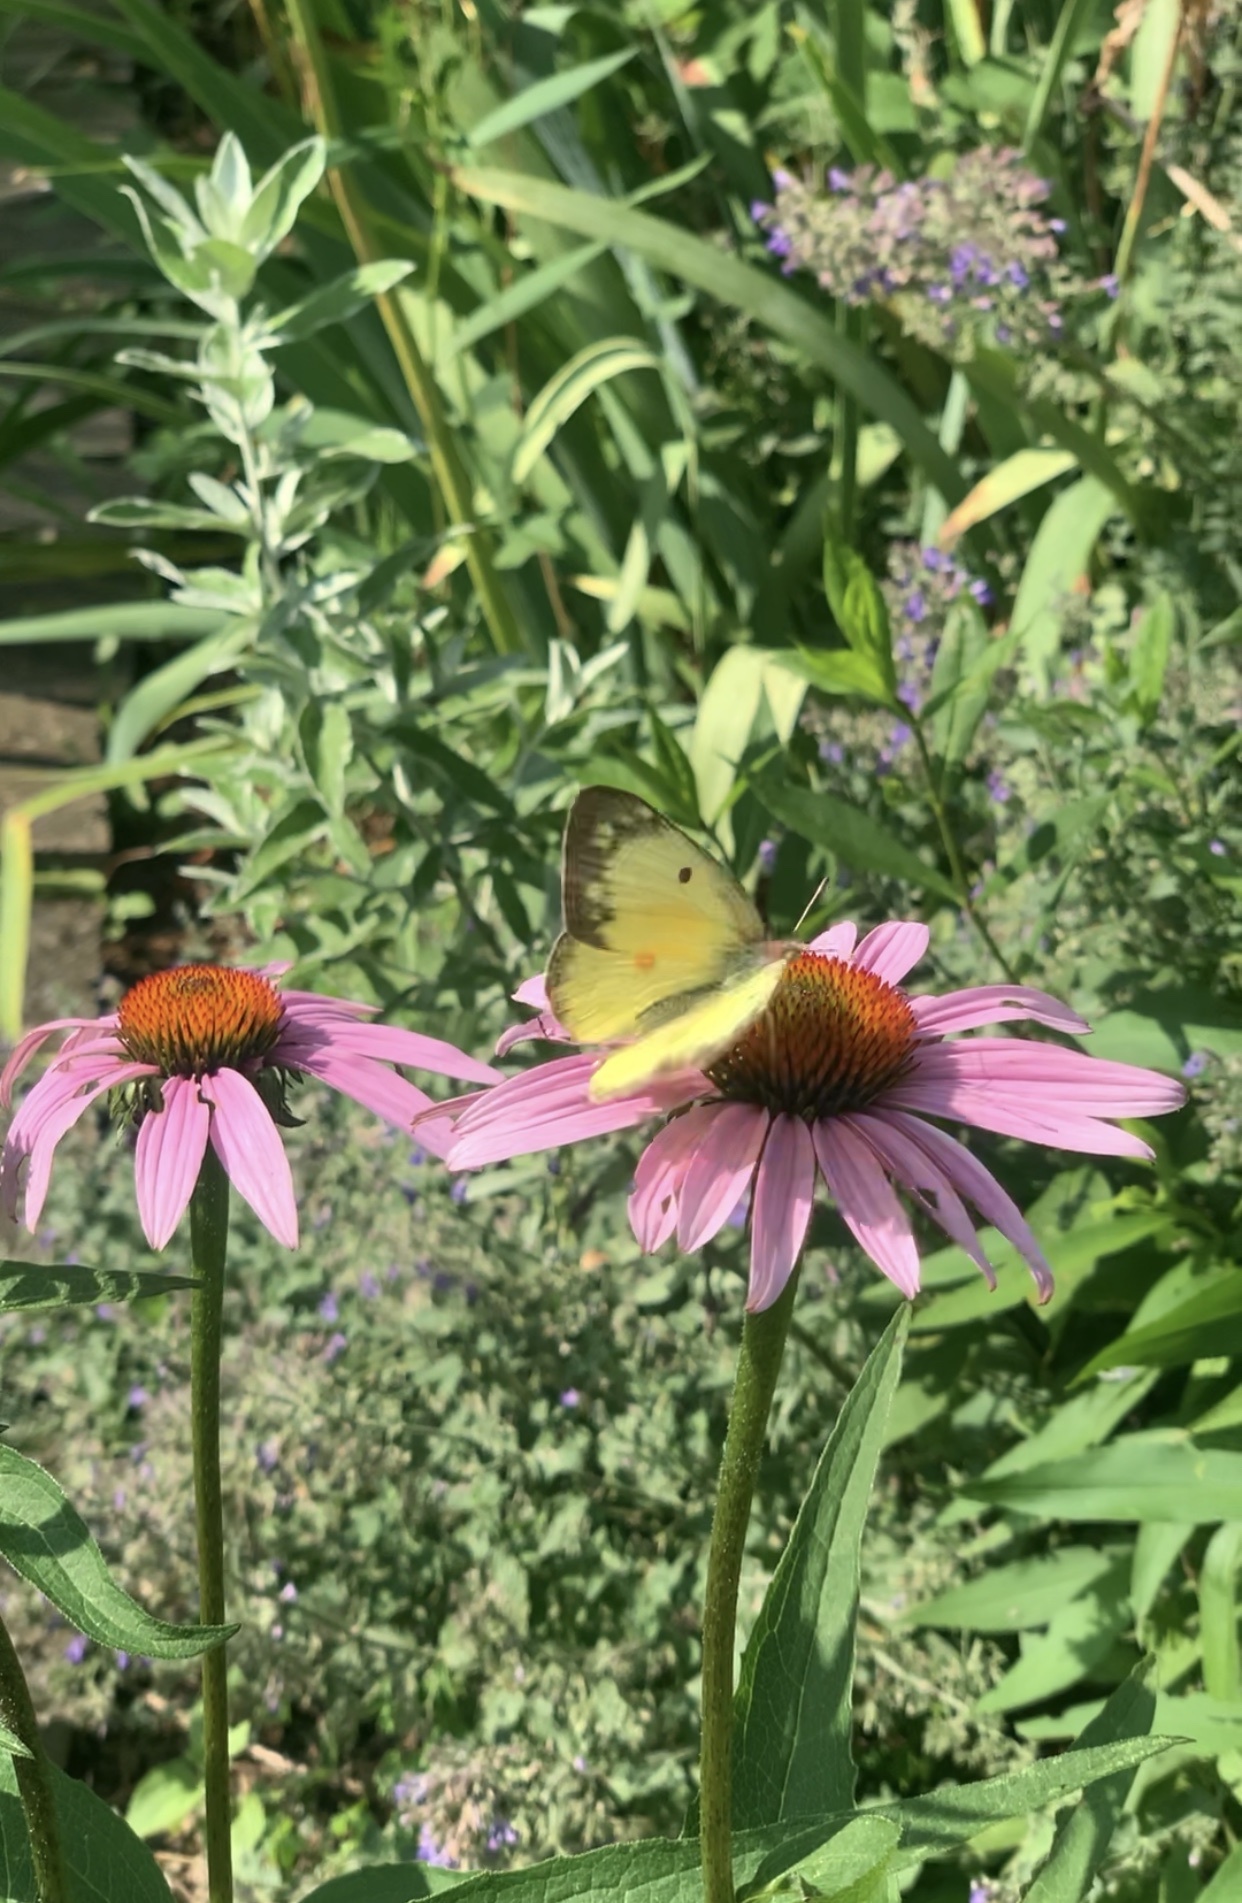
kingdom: Animalia
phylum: Arthropoda
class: Insecta
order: Lepidoptera
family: Pieridae
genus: Colias
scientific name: Colias eurytheme
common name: Alfalfa butterfly
